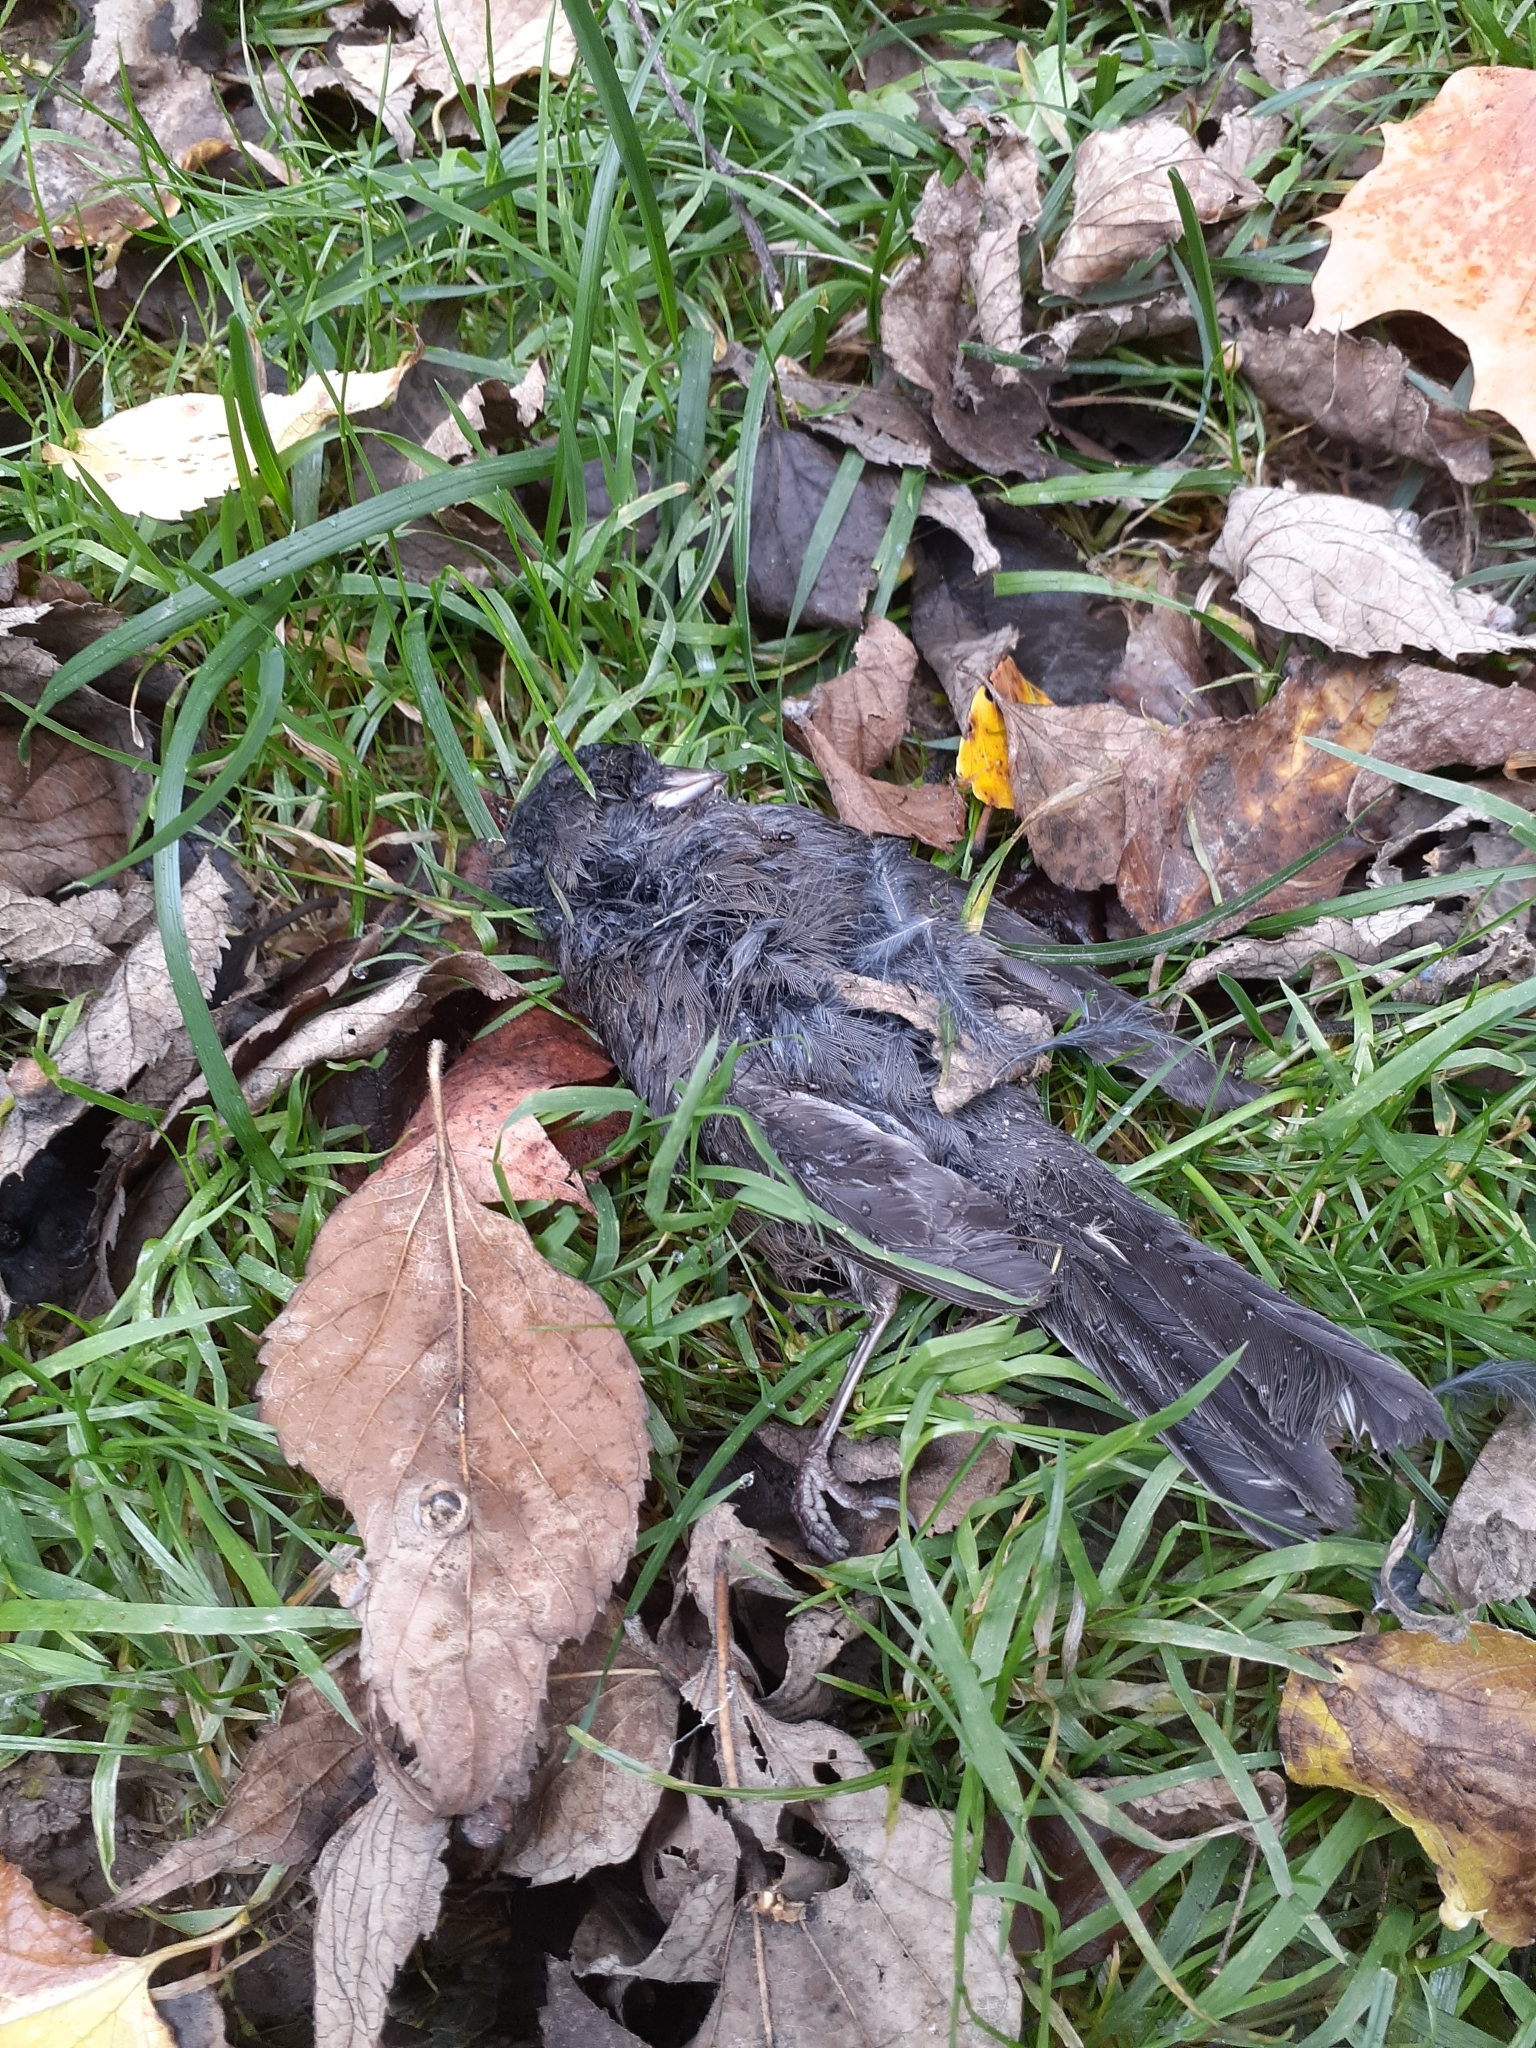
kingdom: Animalia
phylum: Chordata
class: Aves
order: Passeriformes
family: Passerellidae
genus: Junco
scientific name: Junco hyemalis
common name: Dark-eyed junco
